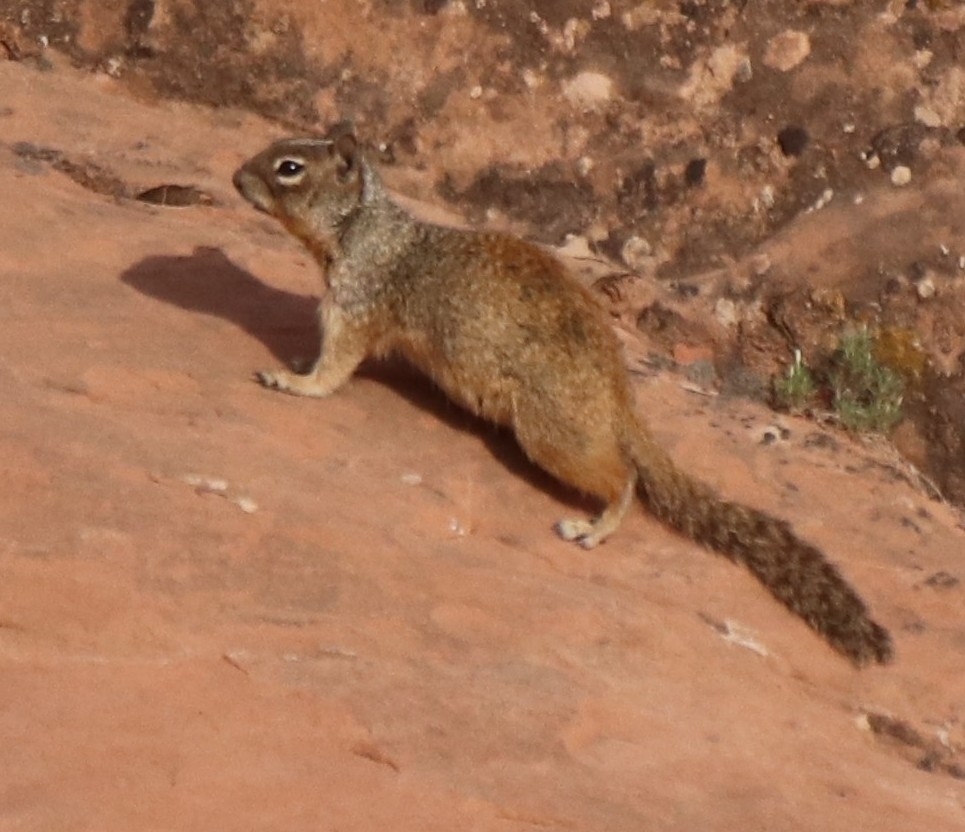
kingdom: Animalia
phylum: Chordata
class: Mammalia
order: Rodentia
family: Sciuridae
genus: Otospermophilus
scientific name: Otospermophilus variegatus
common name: Rock squirrel
